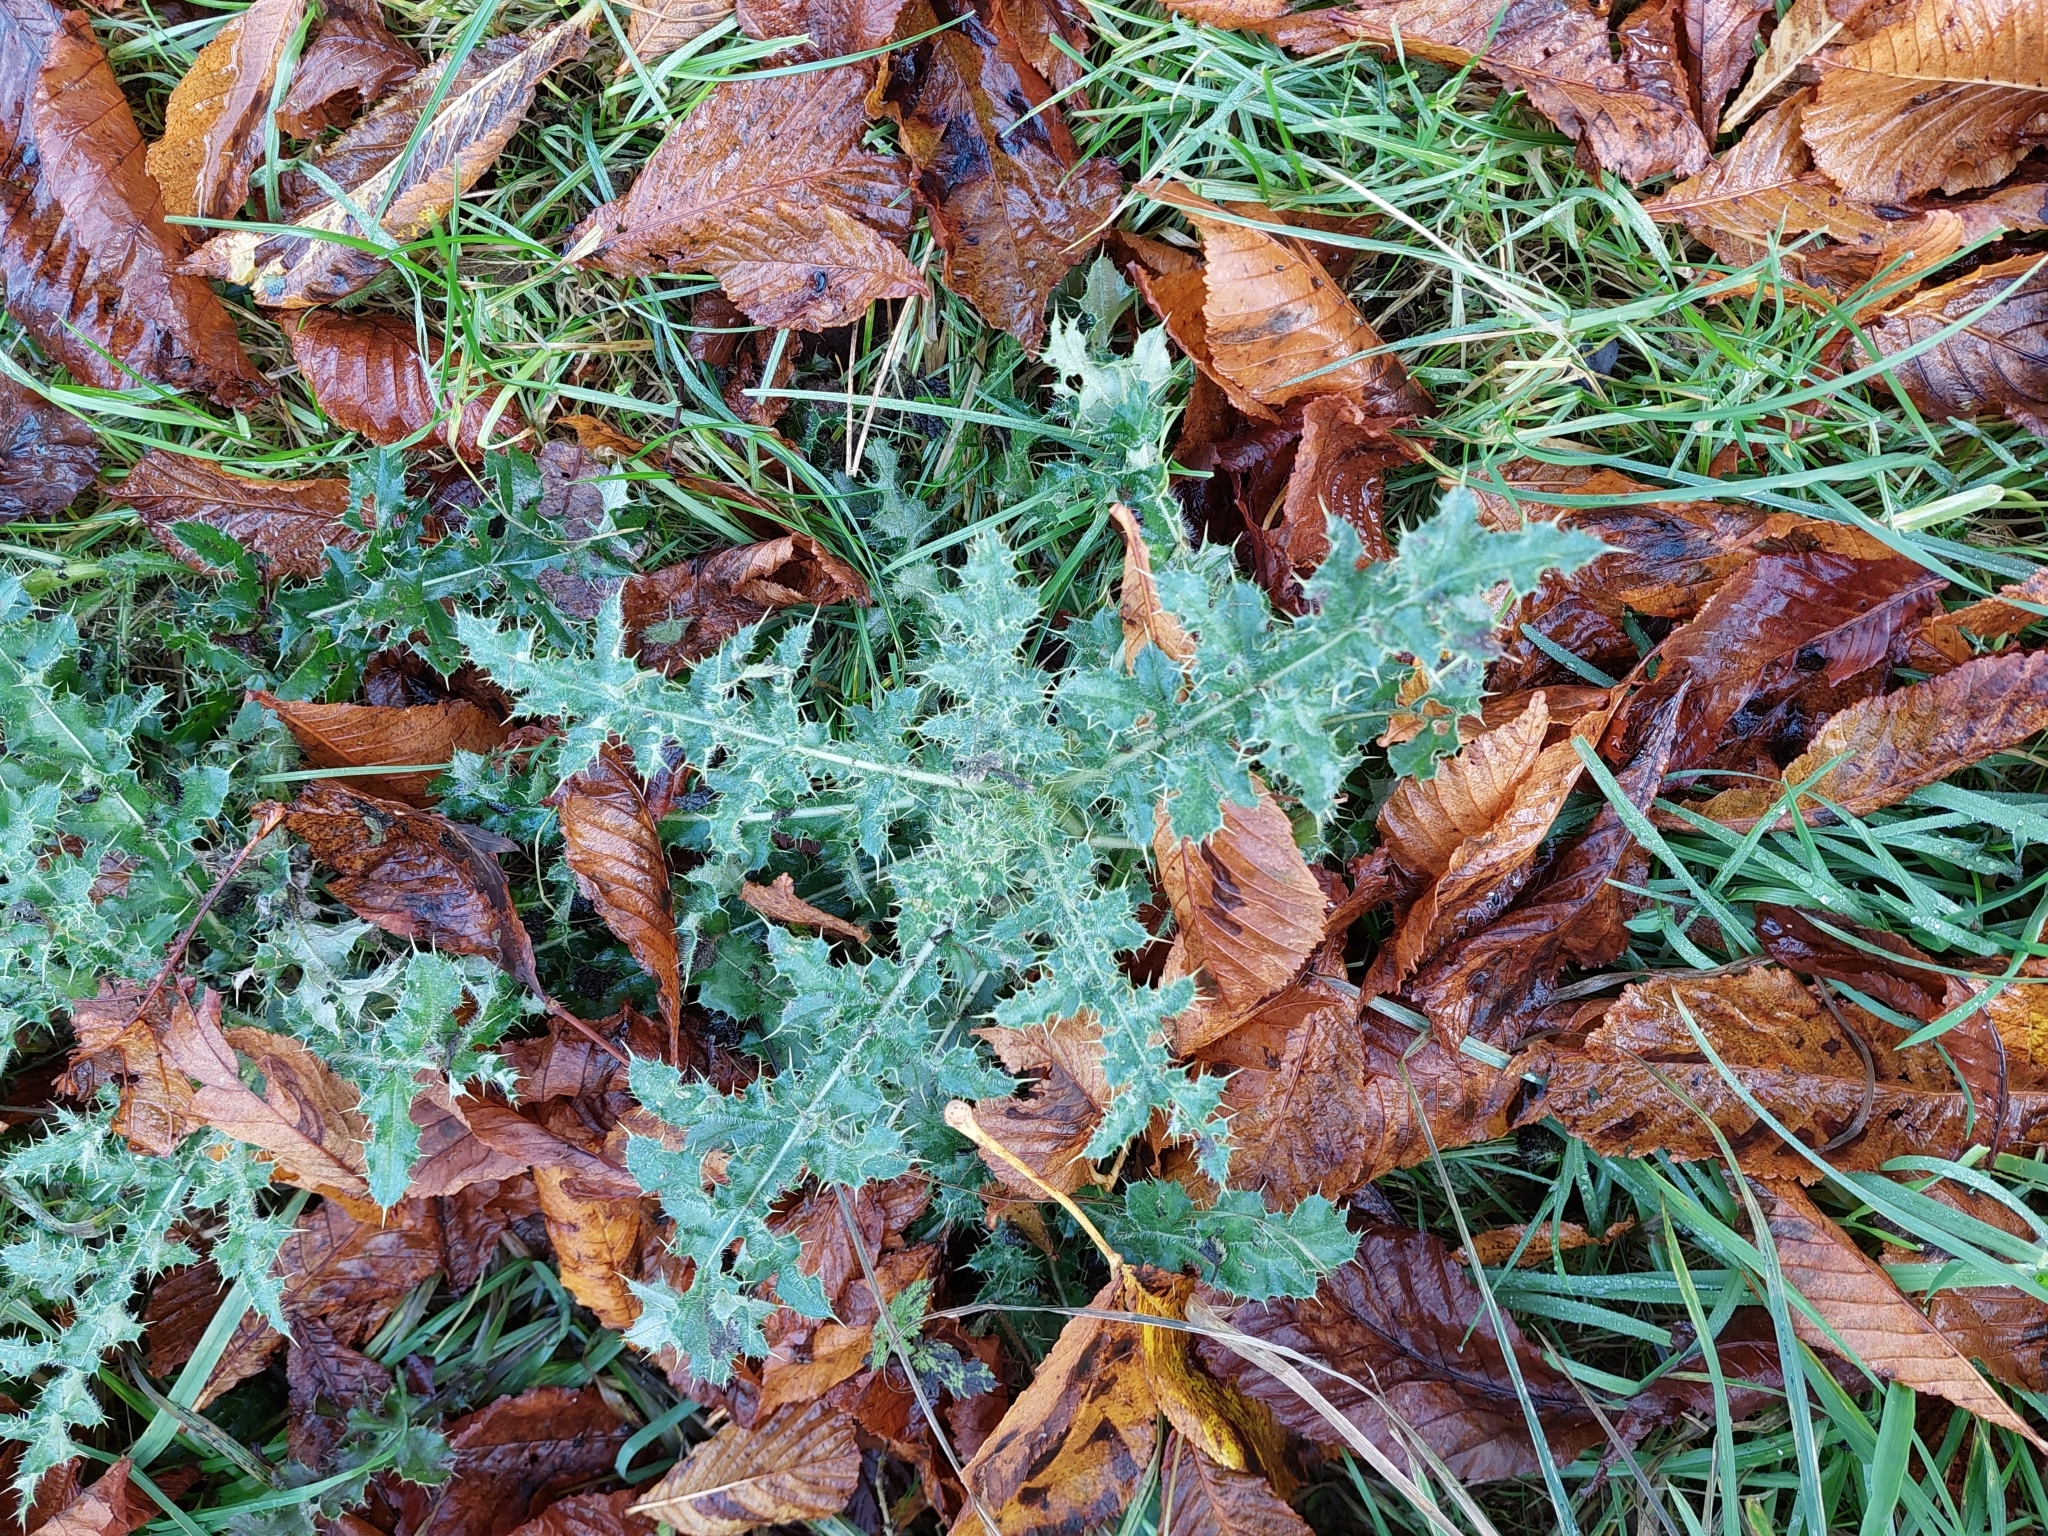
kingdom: Plantae
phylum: Tracheophyta
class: Magnoliopsida
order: Asterales
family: Asteraceae
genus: Cirsium
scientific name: Cirsium arvense
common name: Creeping thistle
